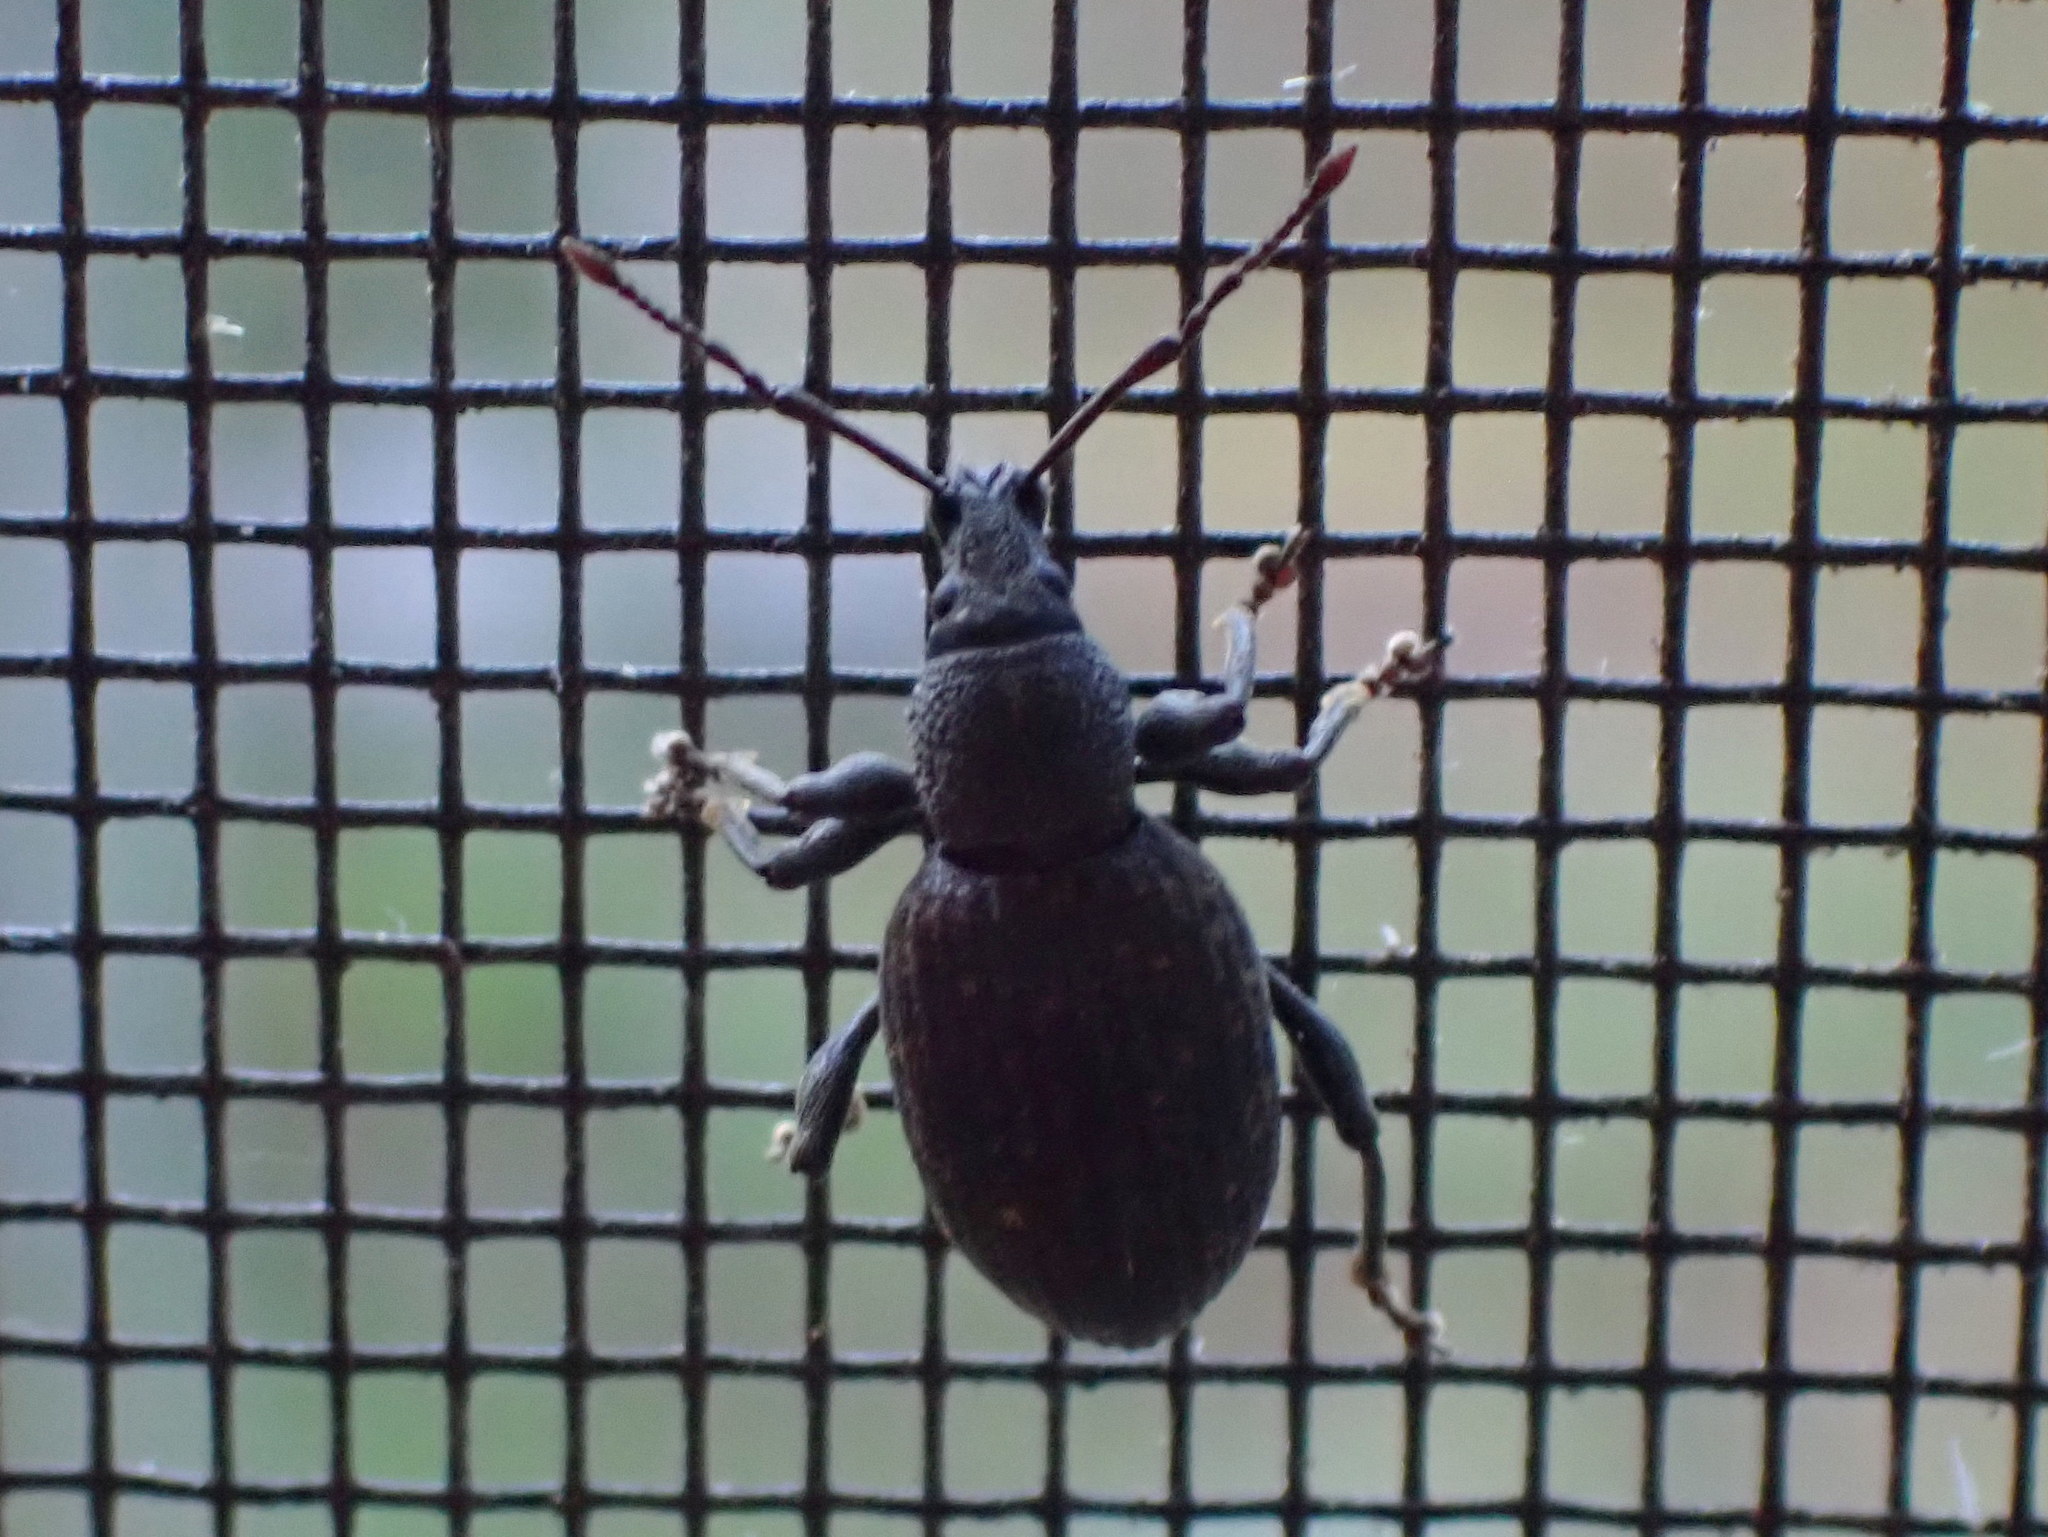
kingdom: Animalia
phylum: Arthropoda
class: Insecta
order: Coleoptera
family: Curculionidae
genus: Otiorhynchus
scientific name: Otiorhynchus sulcatus
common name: Black vine weevil
